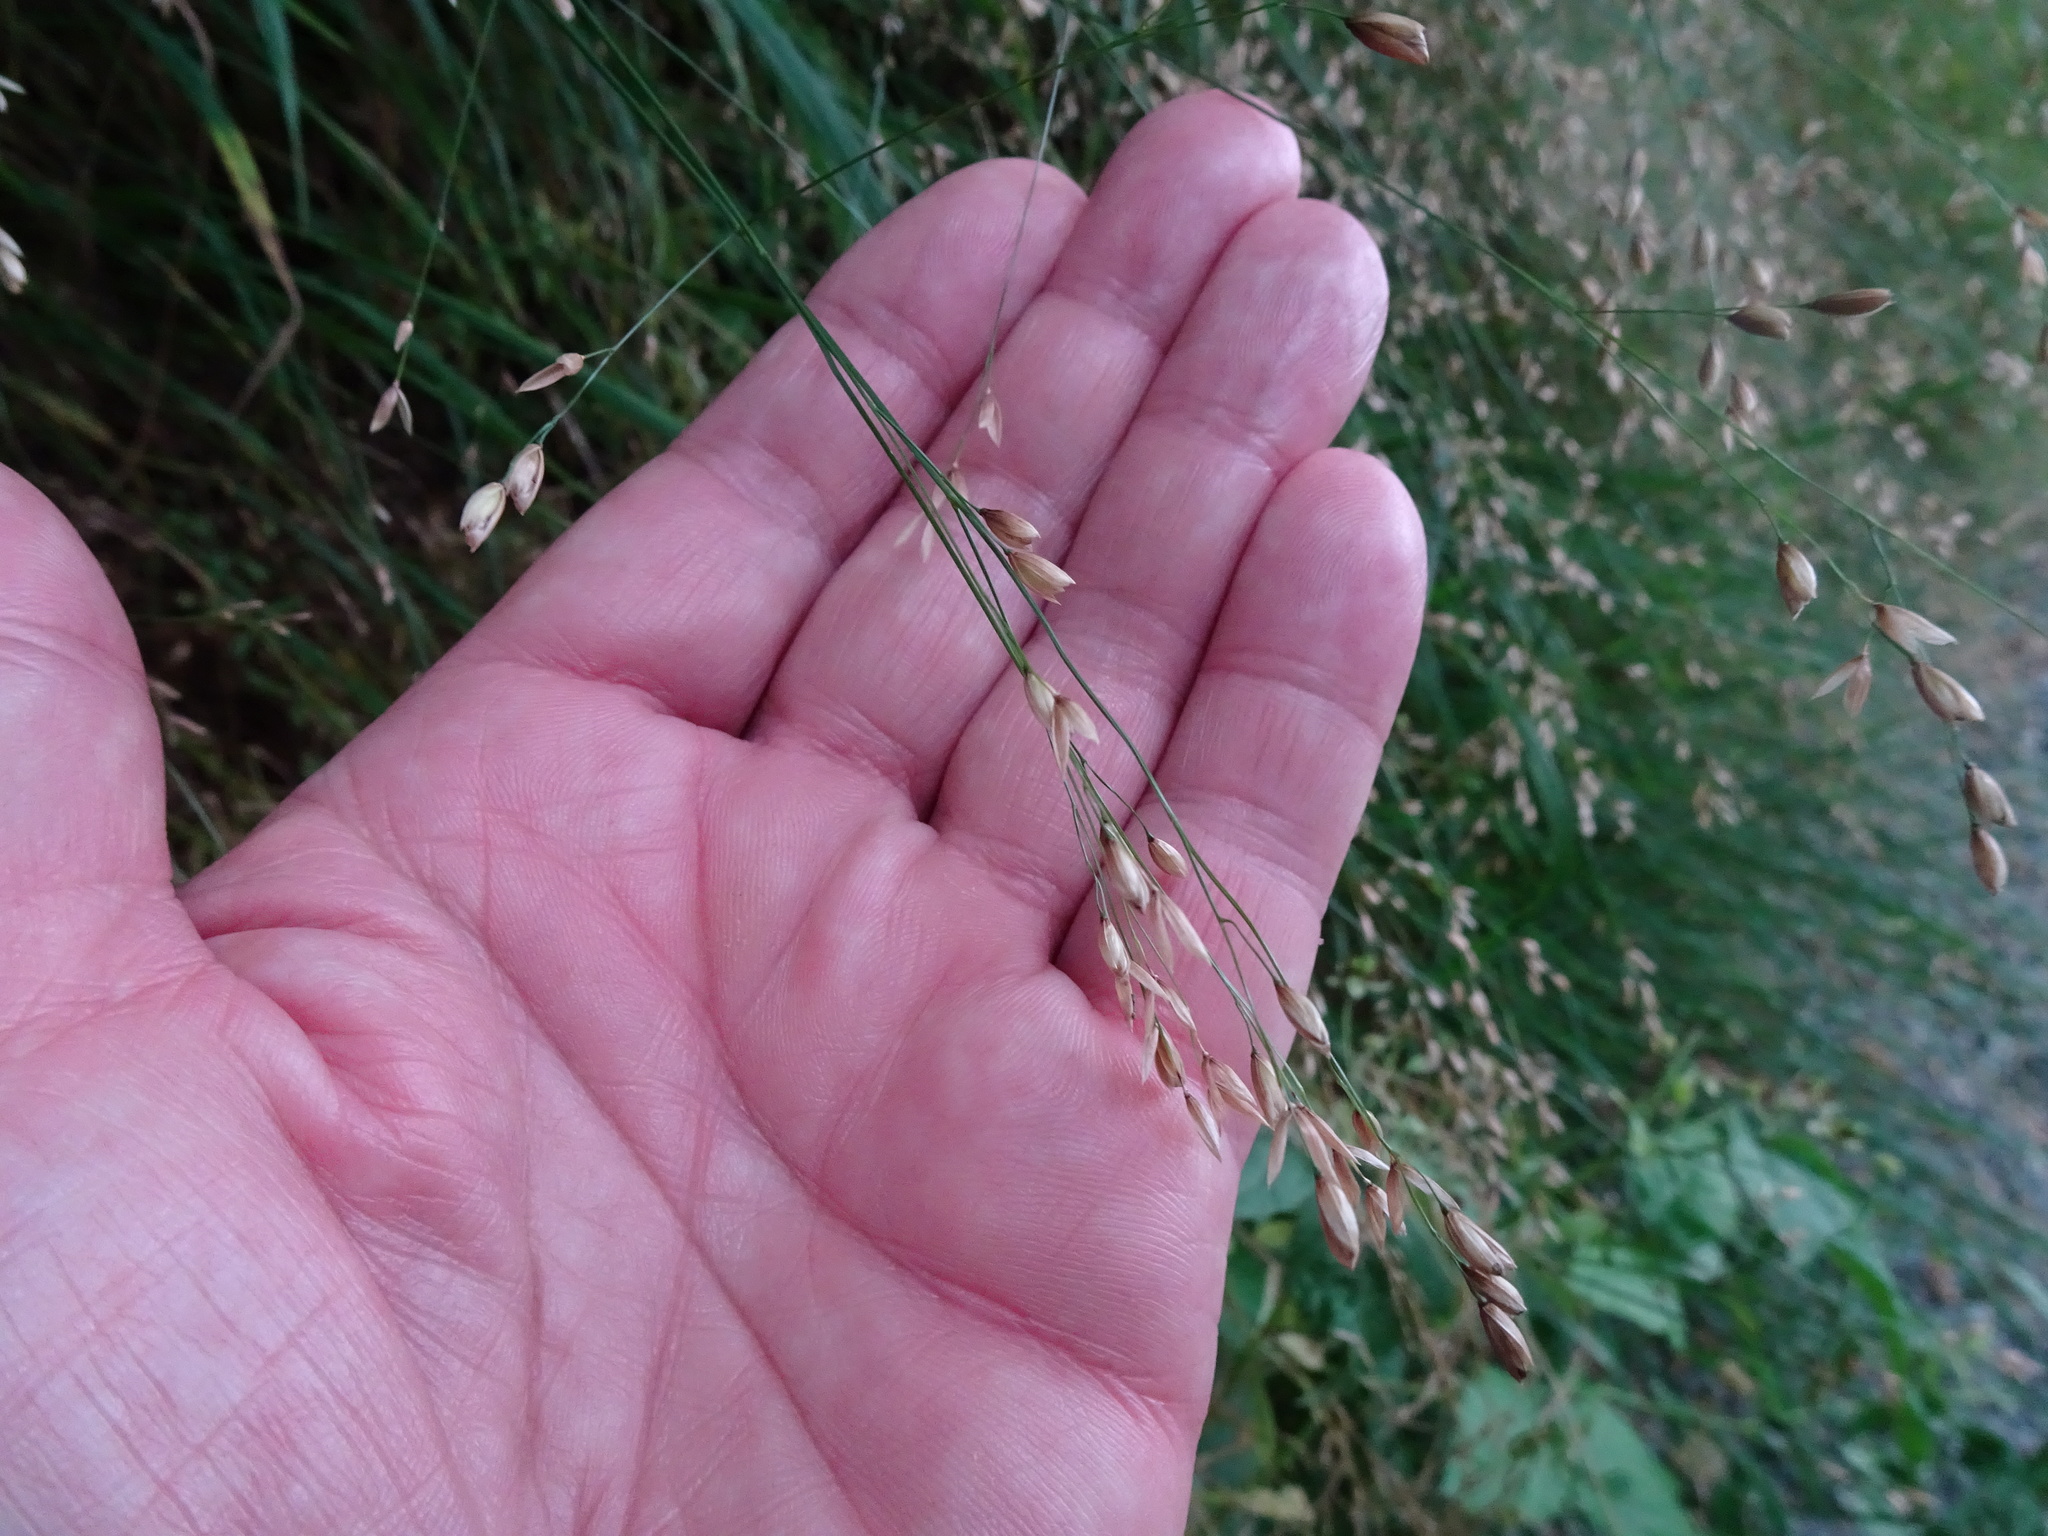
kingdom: Plantae
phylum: Tracheophyta
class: Liliopsida
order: Poales
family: Poaceae
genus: Melica
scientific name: Melica uniflora
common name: Wood melick
